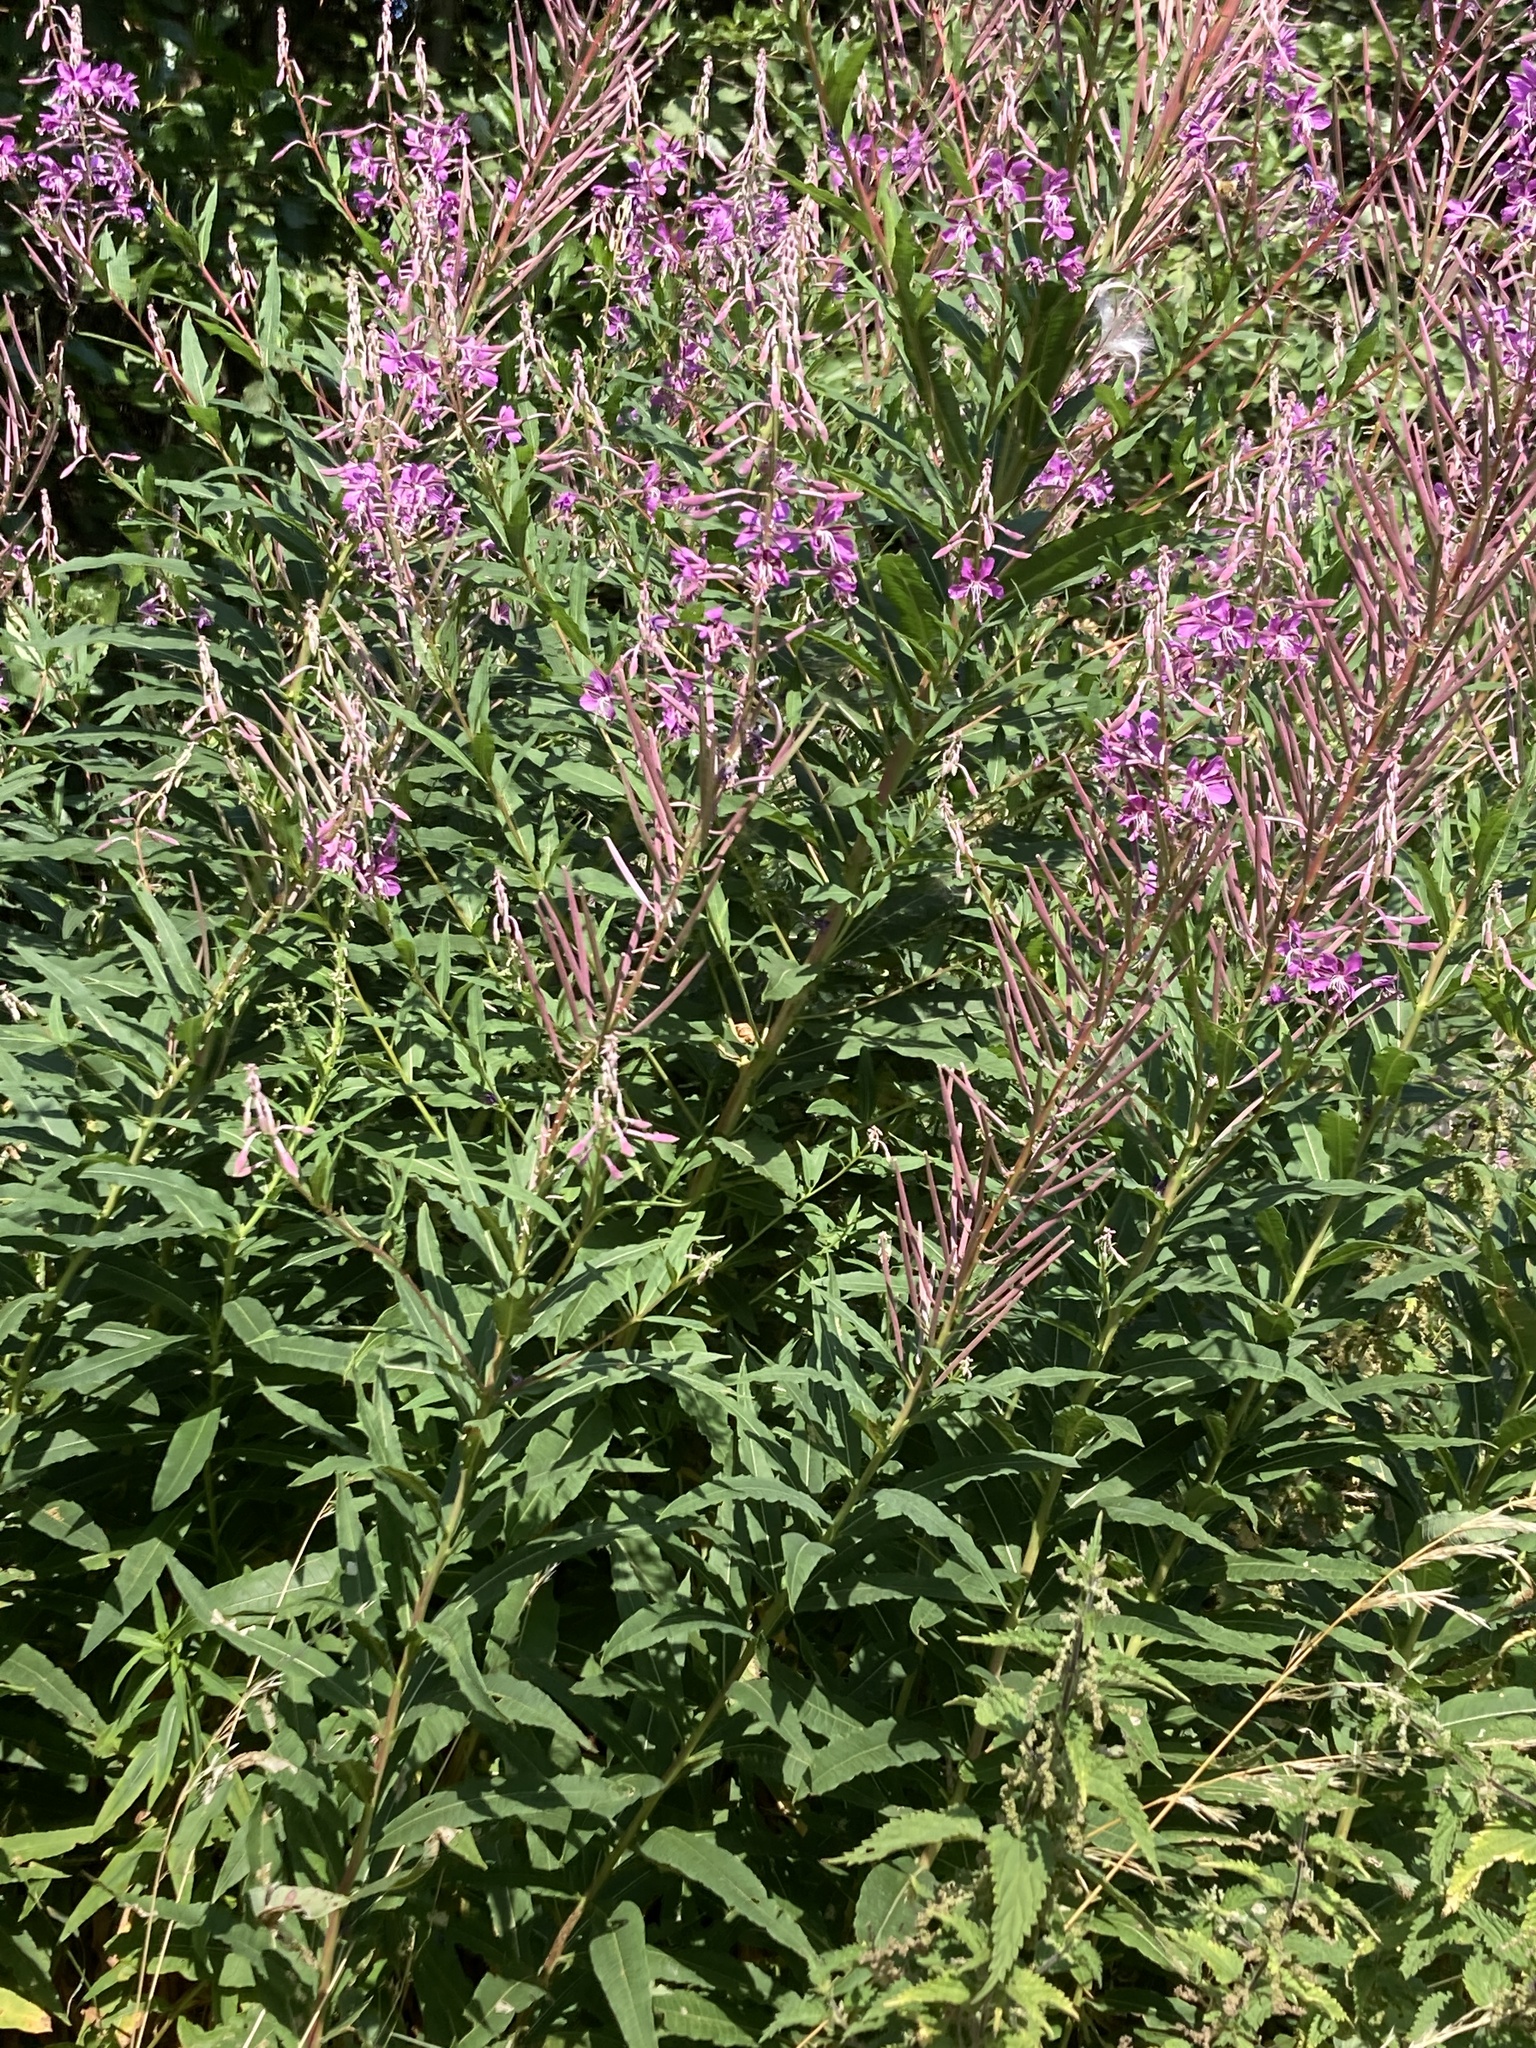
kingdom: Plantae
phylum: Tracheophyta
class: Magnoliopsida
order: Myrtales
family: Onagraceae
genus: Chamaenerion
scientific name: Chamaenerion angustifolium
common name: Fireweed
